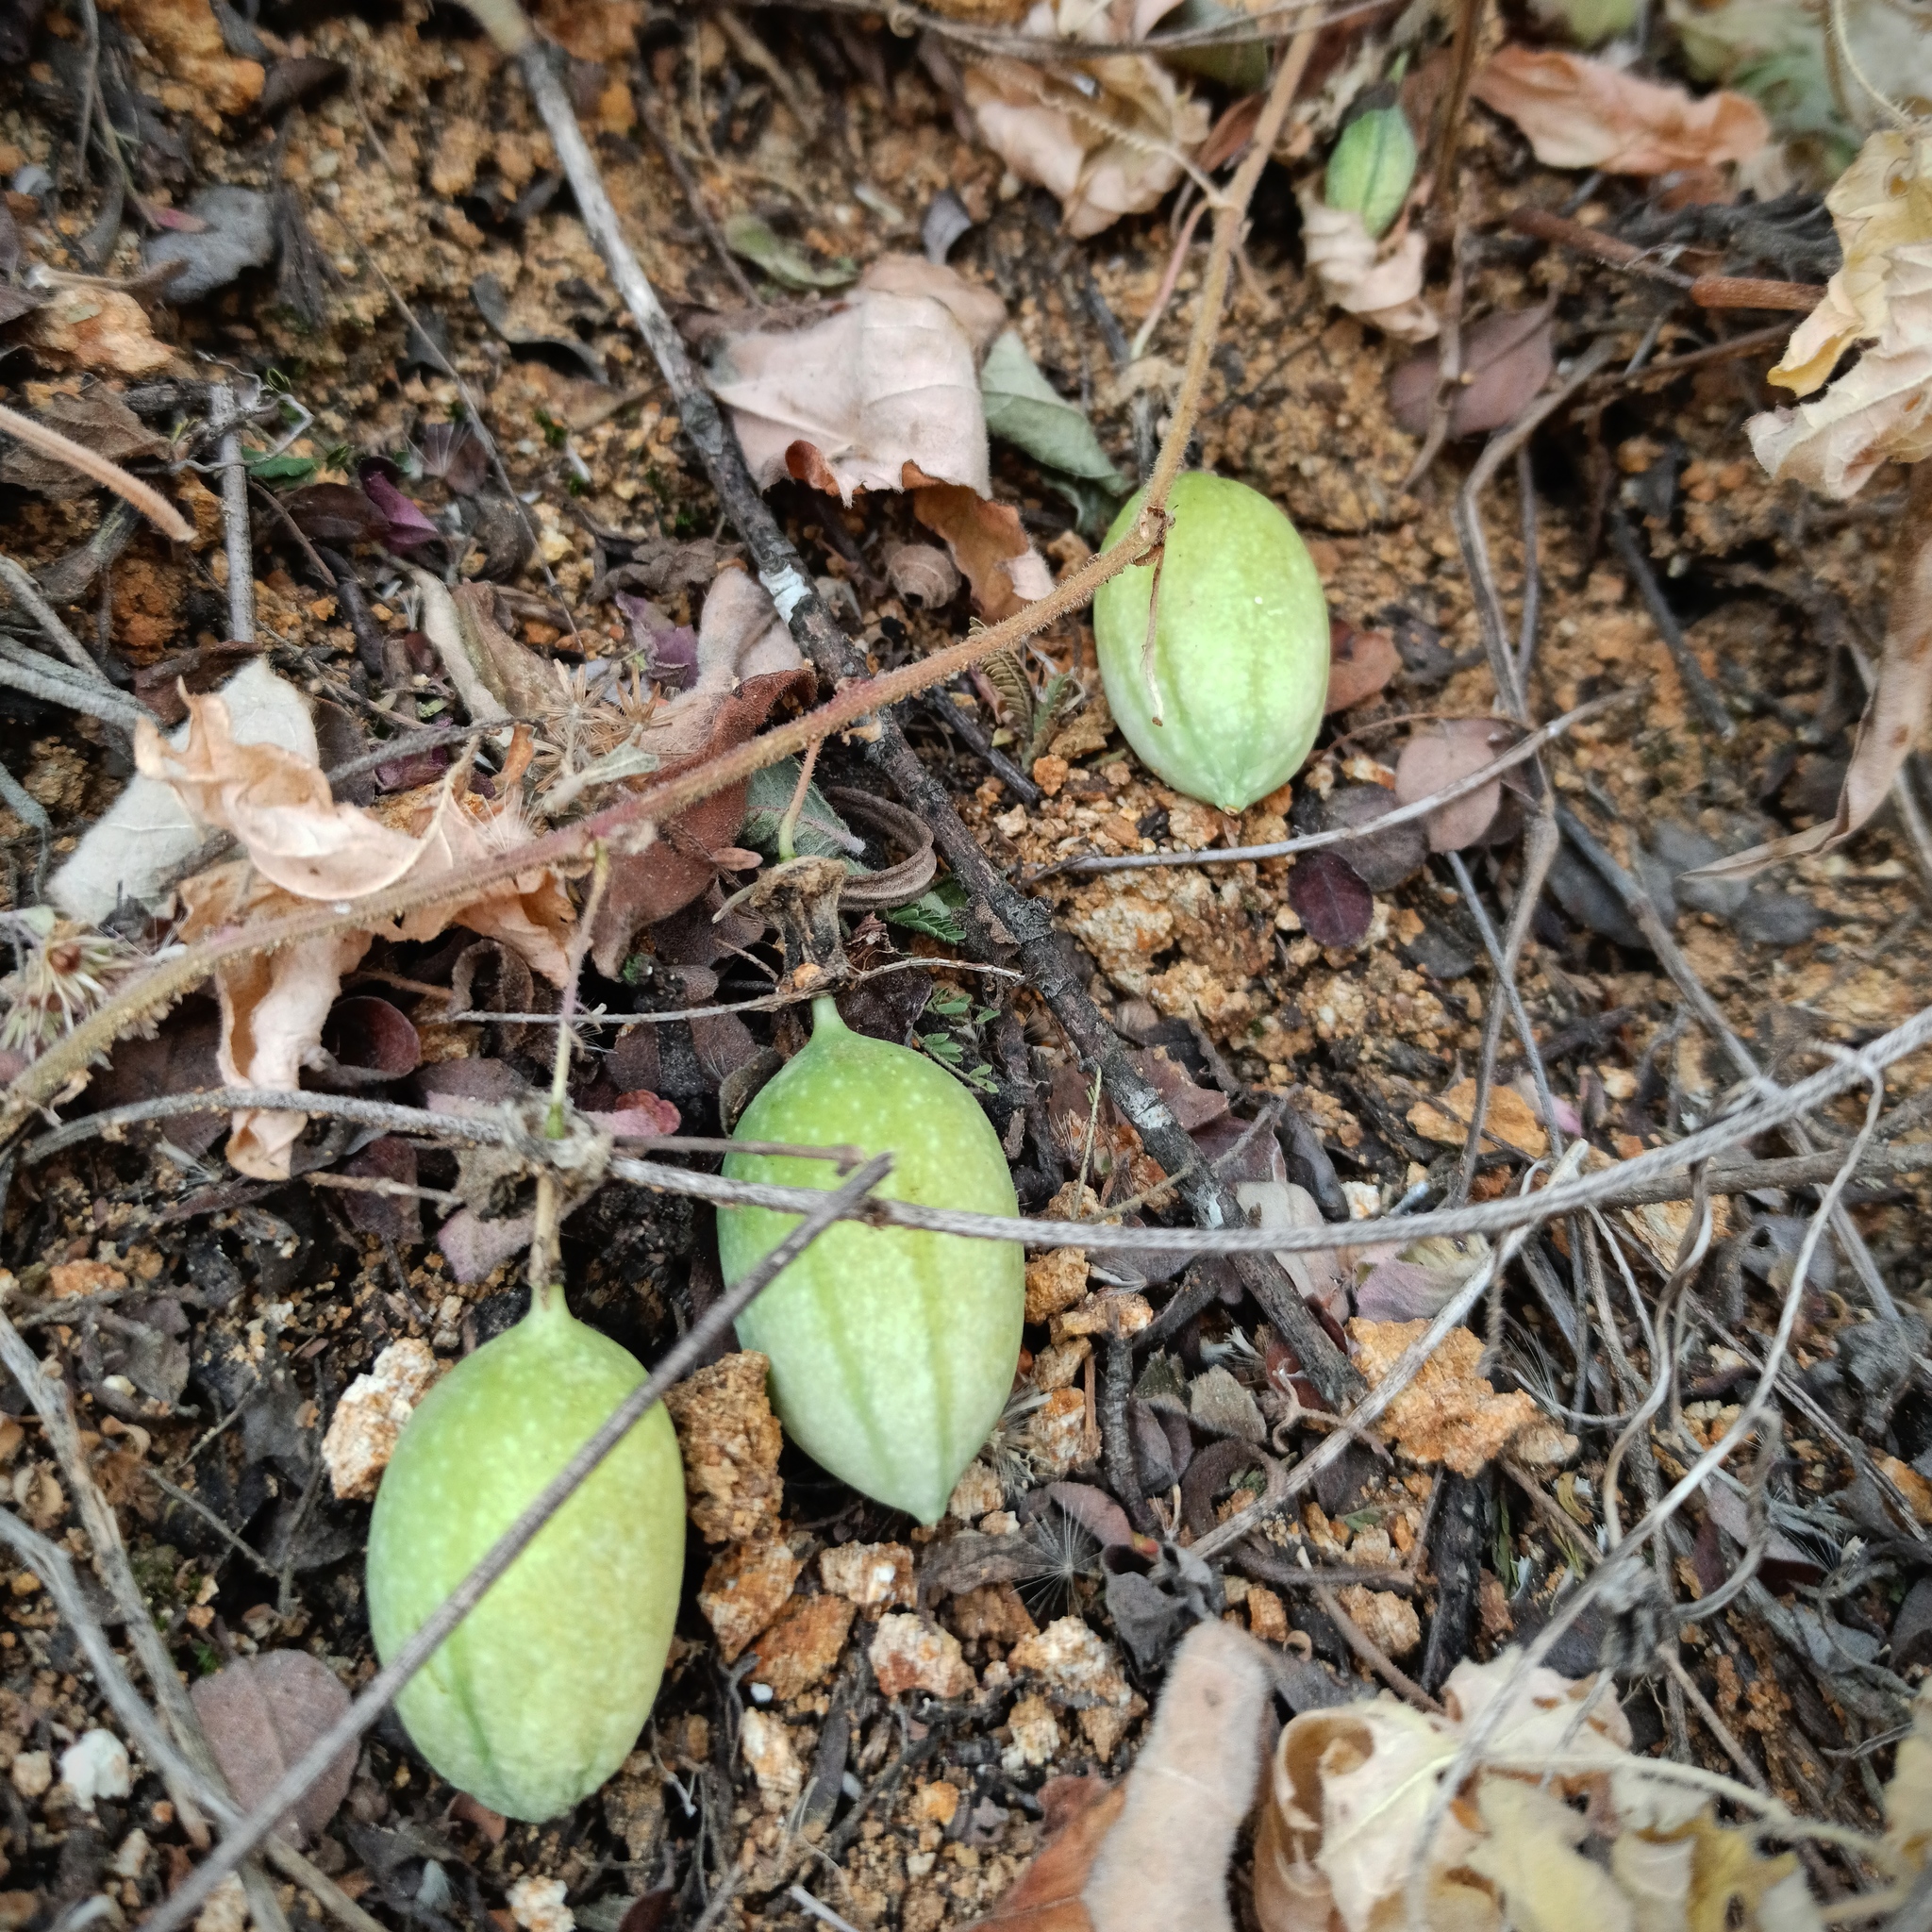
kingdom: Plantae
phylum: Tracheophyta
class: Magnoliopsida
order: Malpighiales
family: Passifloraceae
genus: Passiflora
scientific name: Passiflora bryonioides
